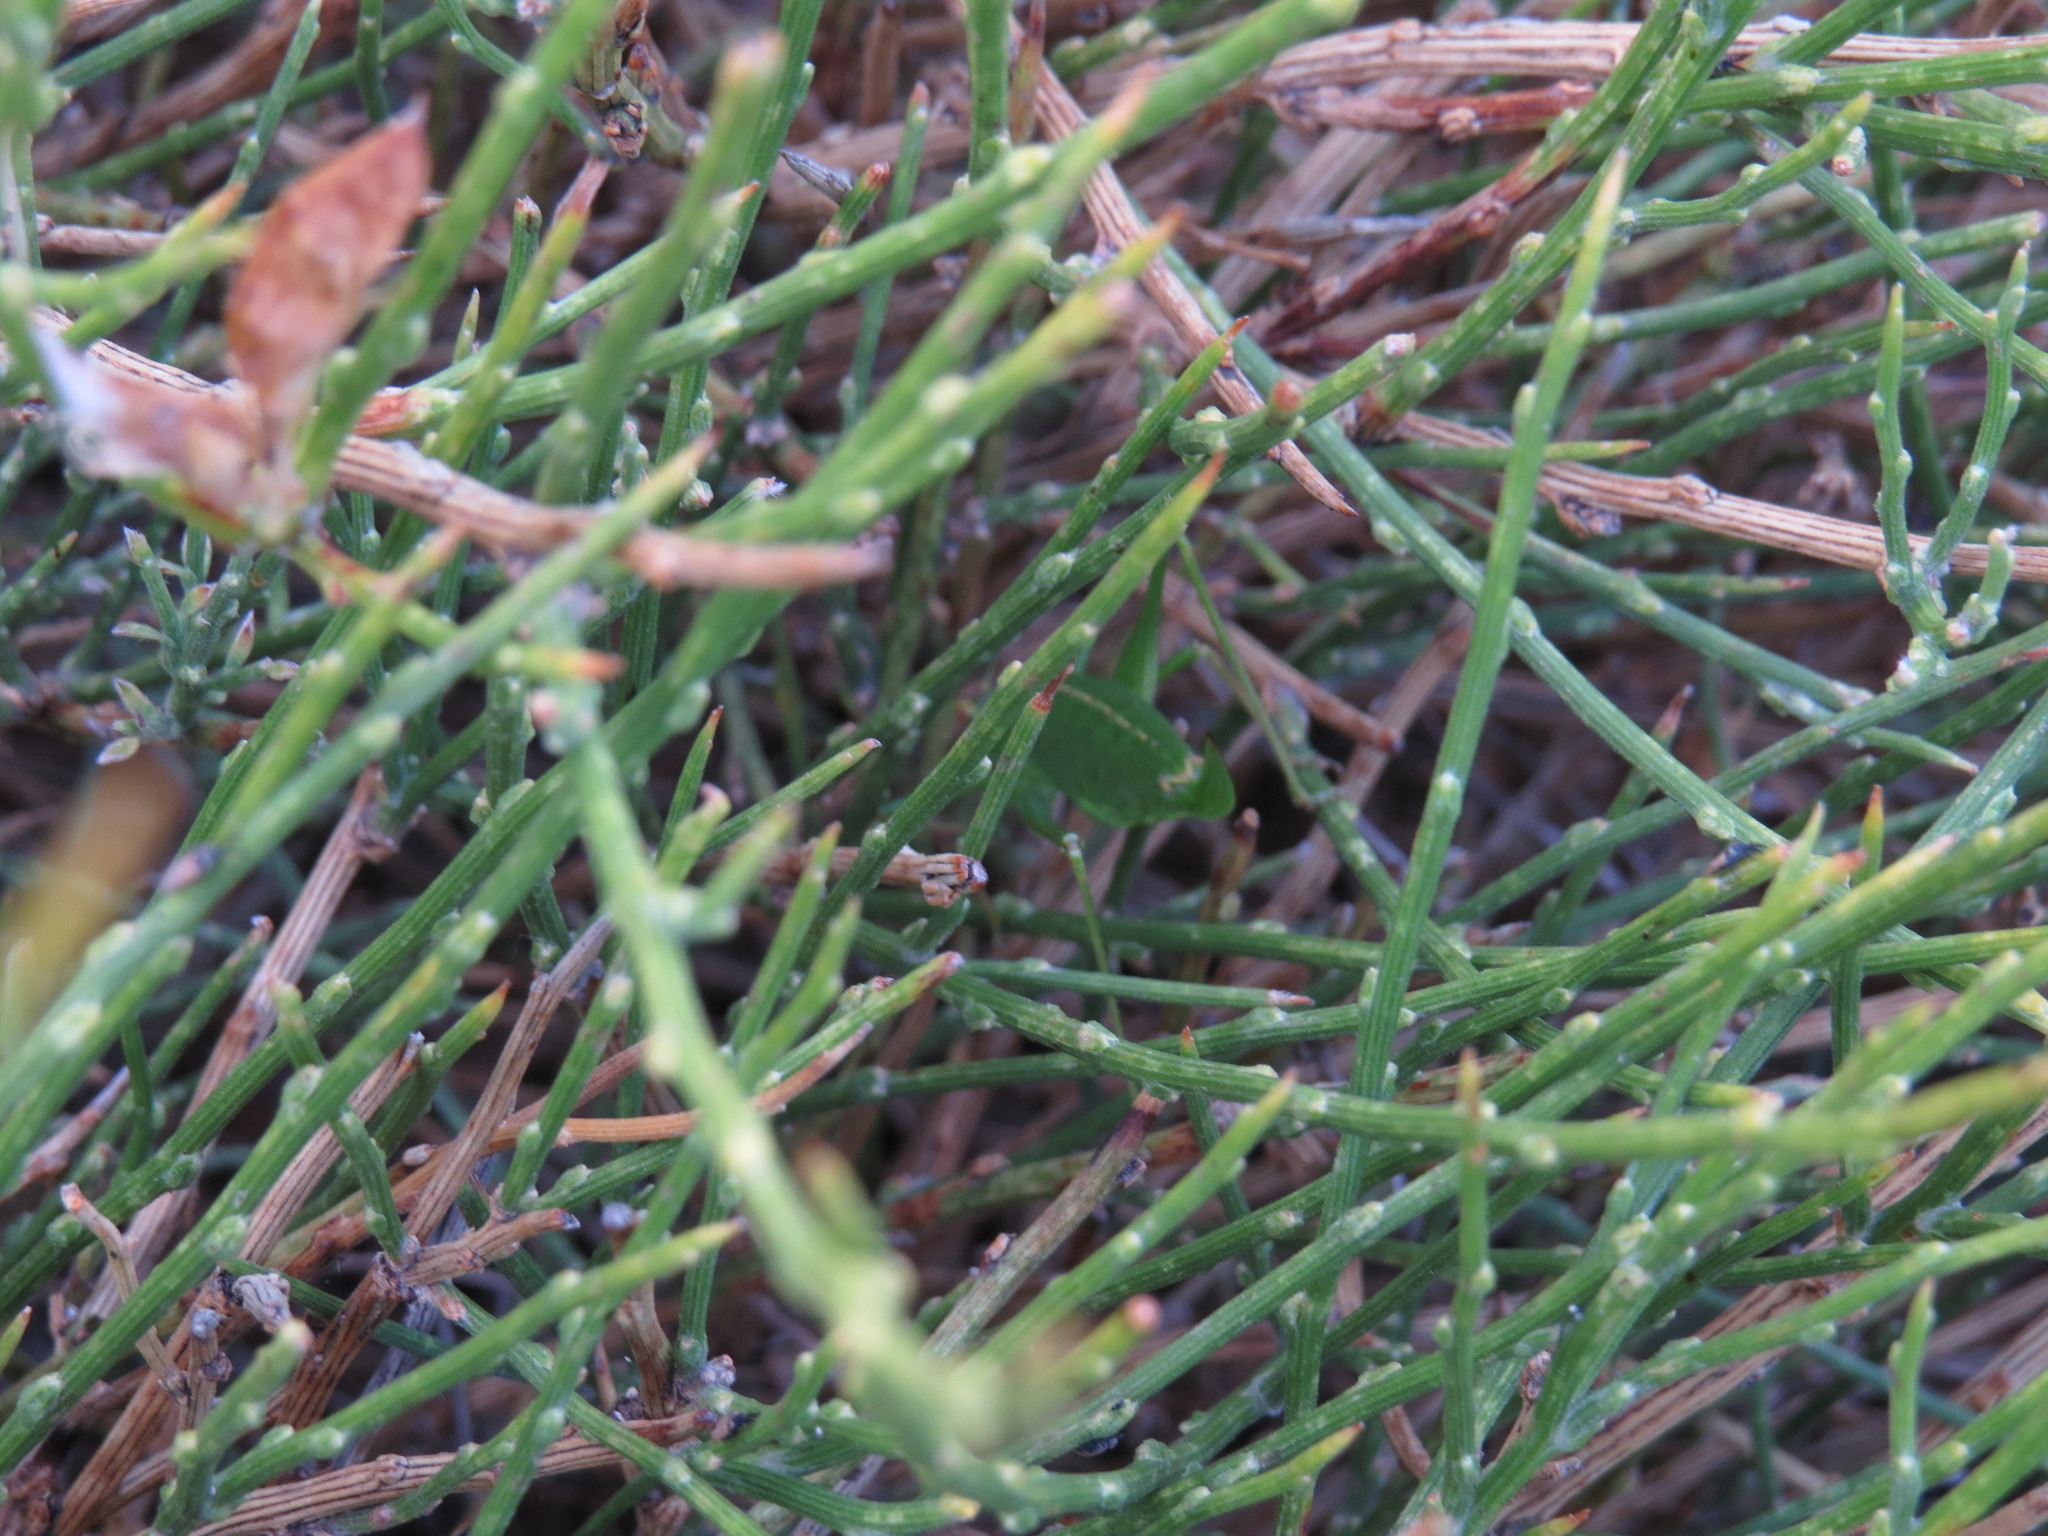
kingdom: Animalia
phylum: Arthropoda
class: Insecta
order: Orthoptera
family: Tettigoniidae
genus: Leptophyes
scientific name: Leptophyes punctatissima
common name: Speckled bush-cricket
